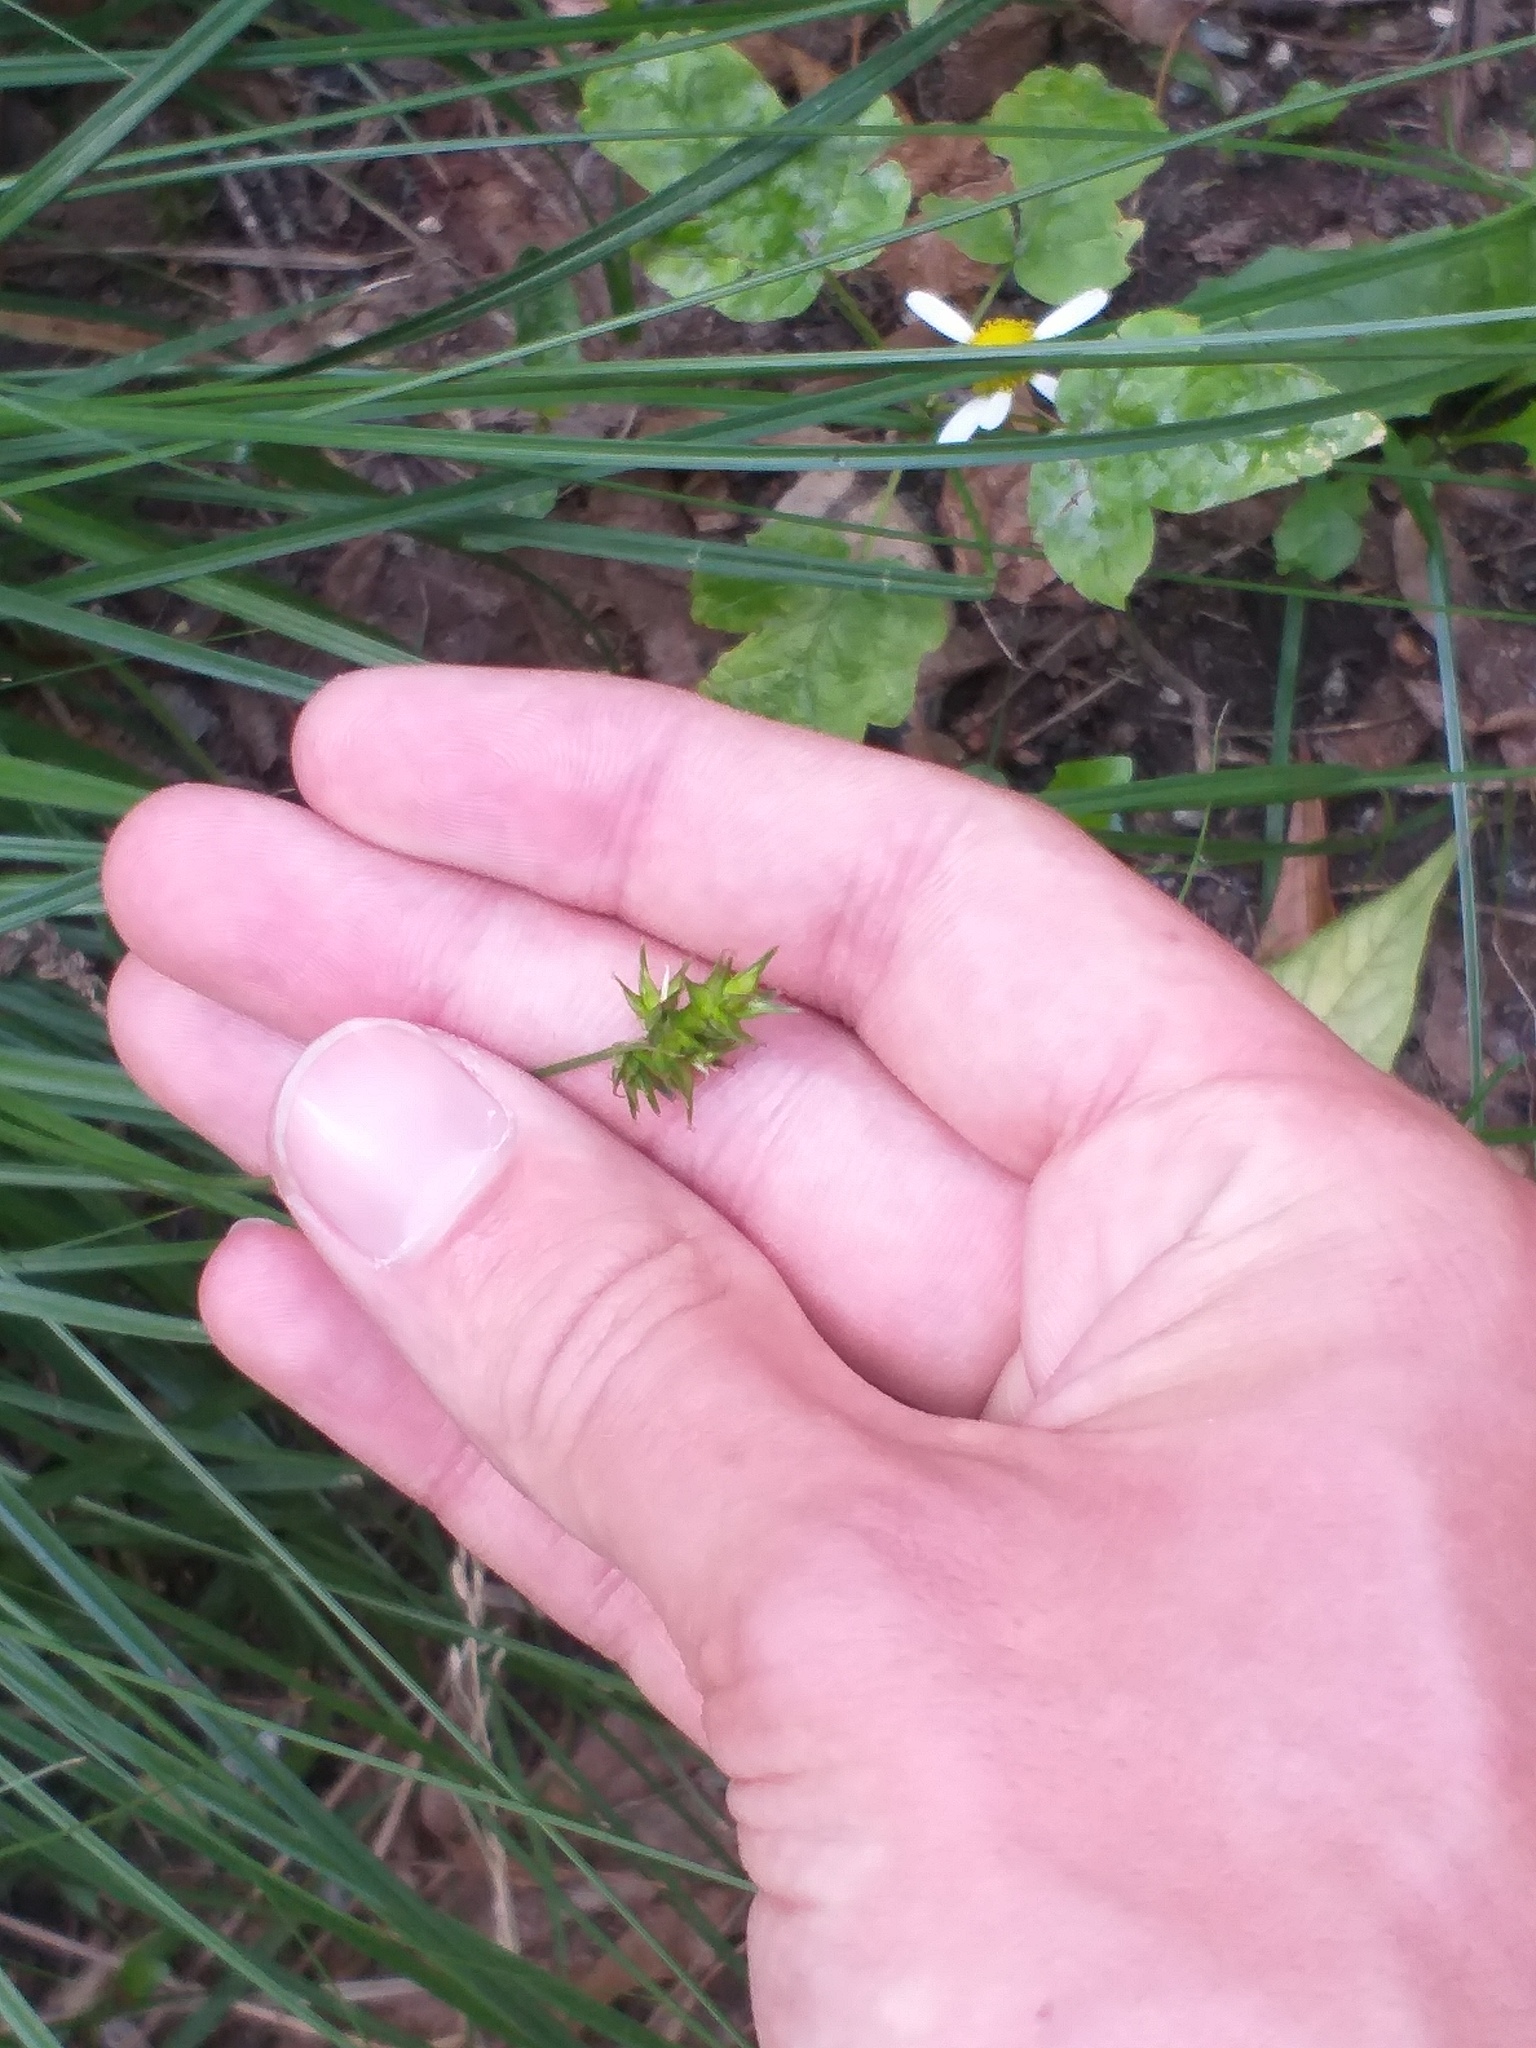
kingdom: Plantae
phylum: Tracheophyta
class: Liliopsida
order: Poales
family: Cyperaceae
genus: Carex
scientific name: Carex spicata
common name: Spiked sedge
